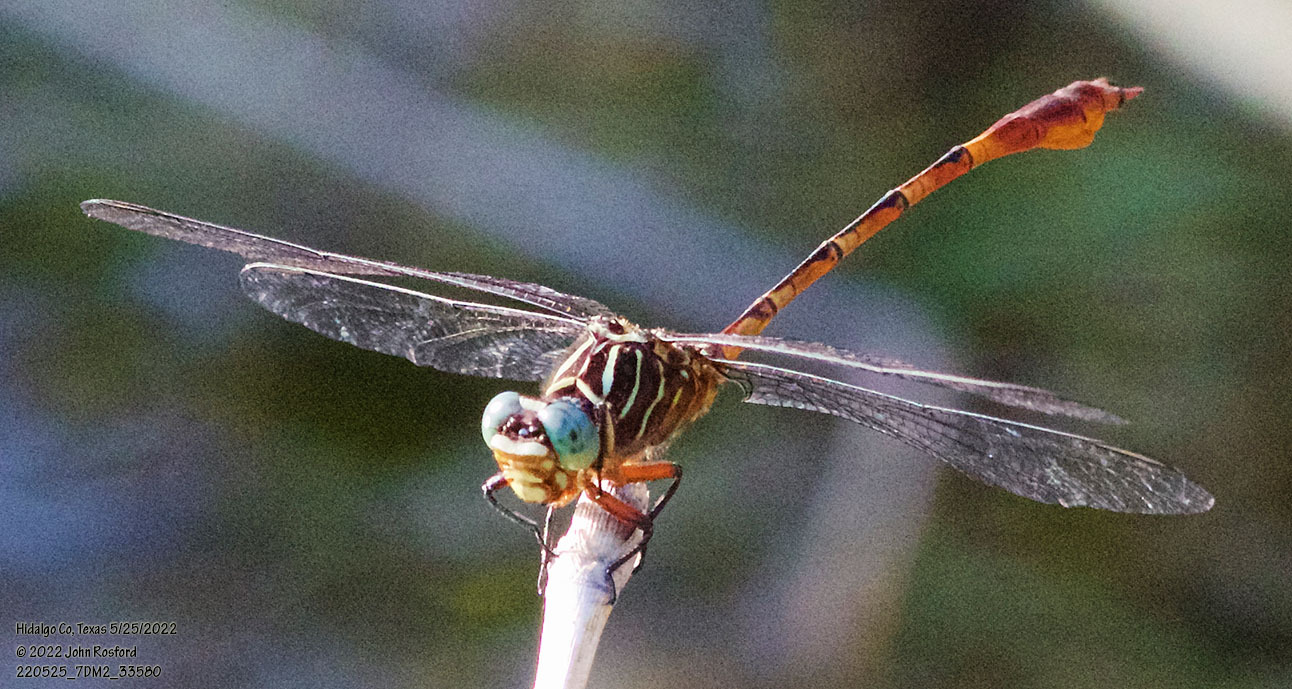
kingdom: Animalia
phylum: Arthropoda
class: Insecta
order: Odonata
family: Gomphidae
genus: Aphylla
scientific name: Aphylla protracta
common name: Narrow-striped forceptail
